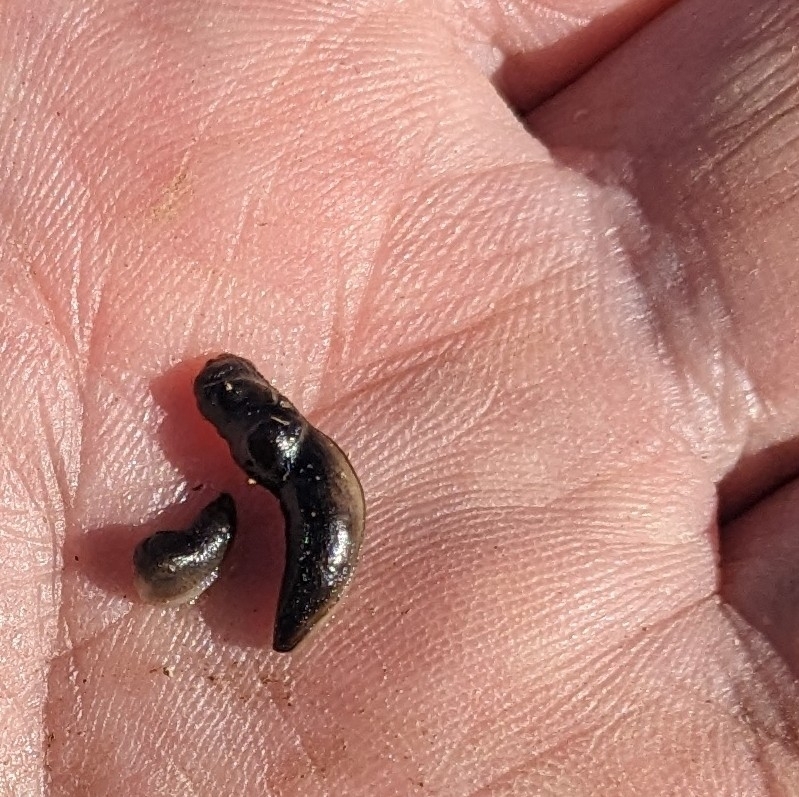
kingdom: Animalia
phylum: Mollusca
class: Gastropoda
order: Stylommatophora
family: Milacidae
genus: Milax
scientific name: Milax gagates
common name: Greenhouse slug
